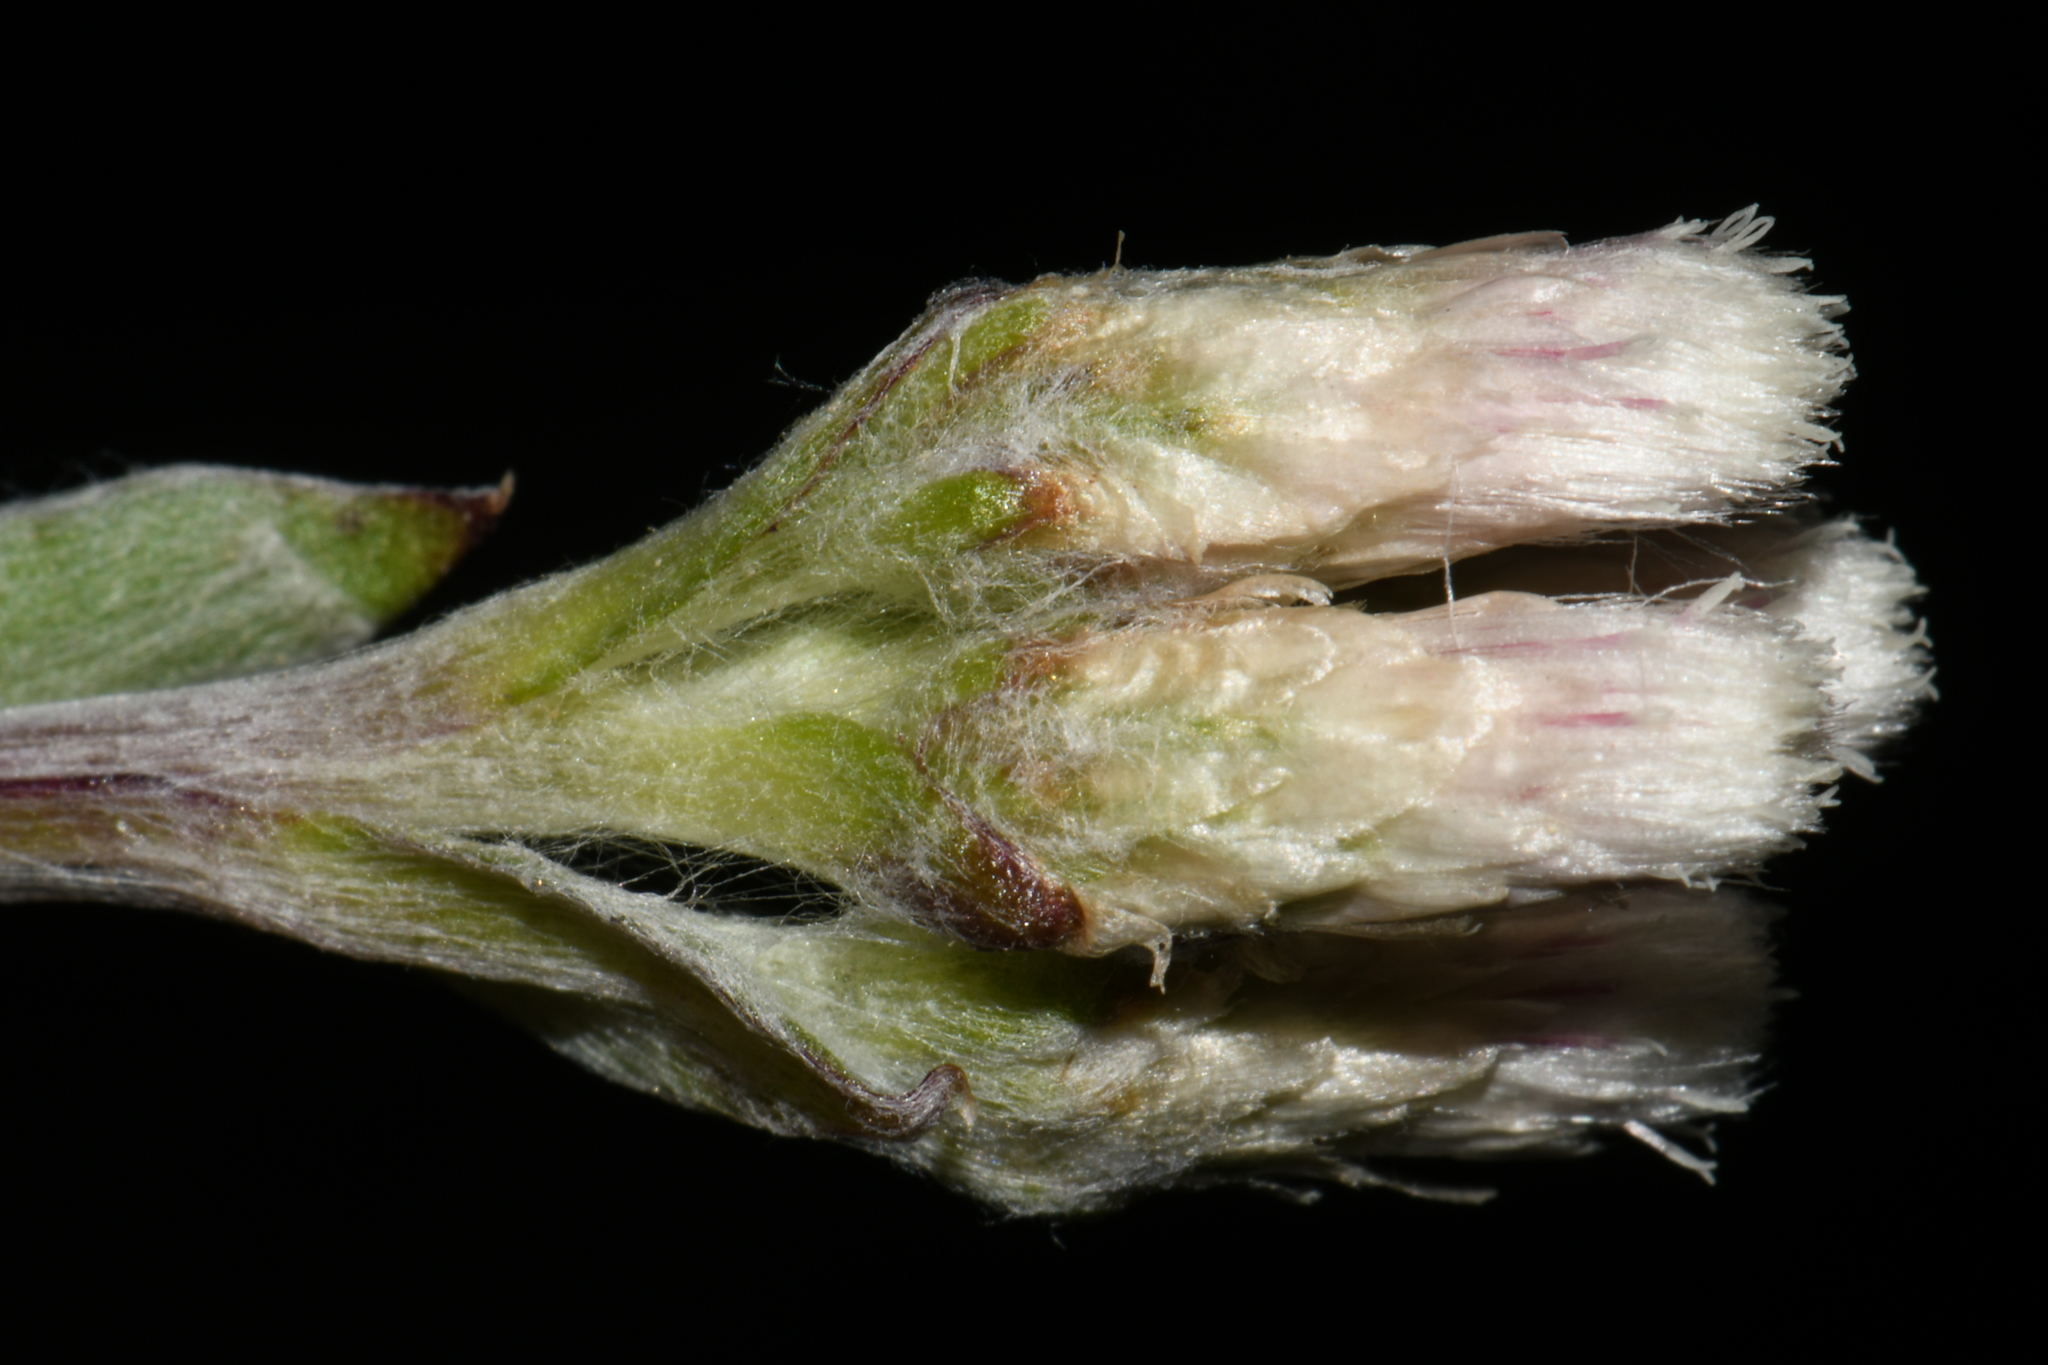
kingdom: Plantae
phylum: Tracheophyta
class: Magnoliopsida
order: Asterales
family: Asteraceae
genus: Antennaria
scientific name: Antennaria parvifolia
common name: Nuttall's pussytoes
